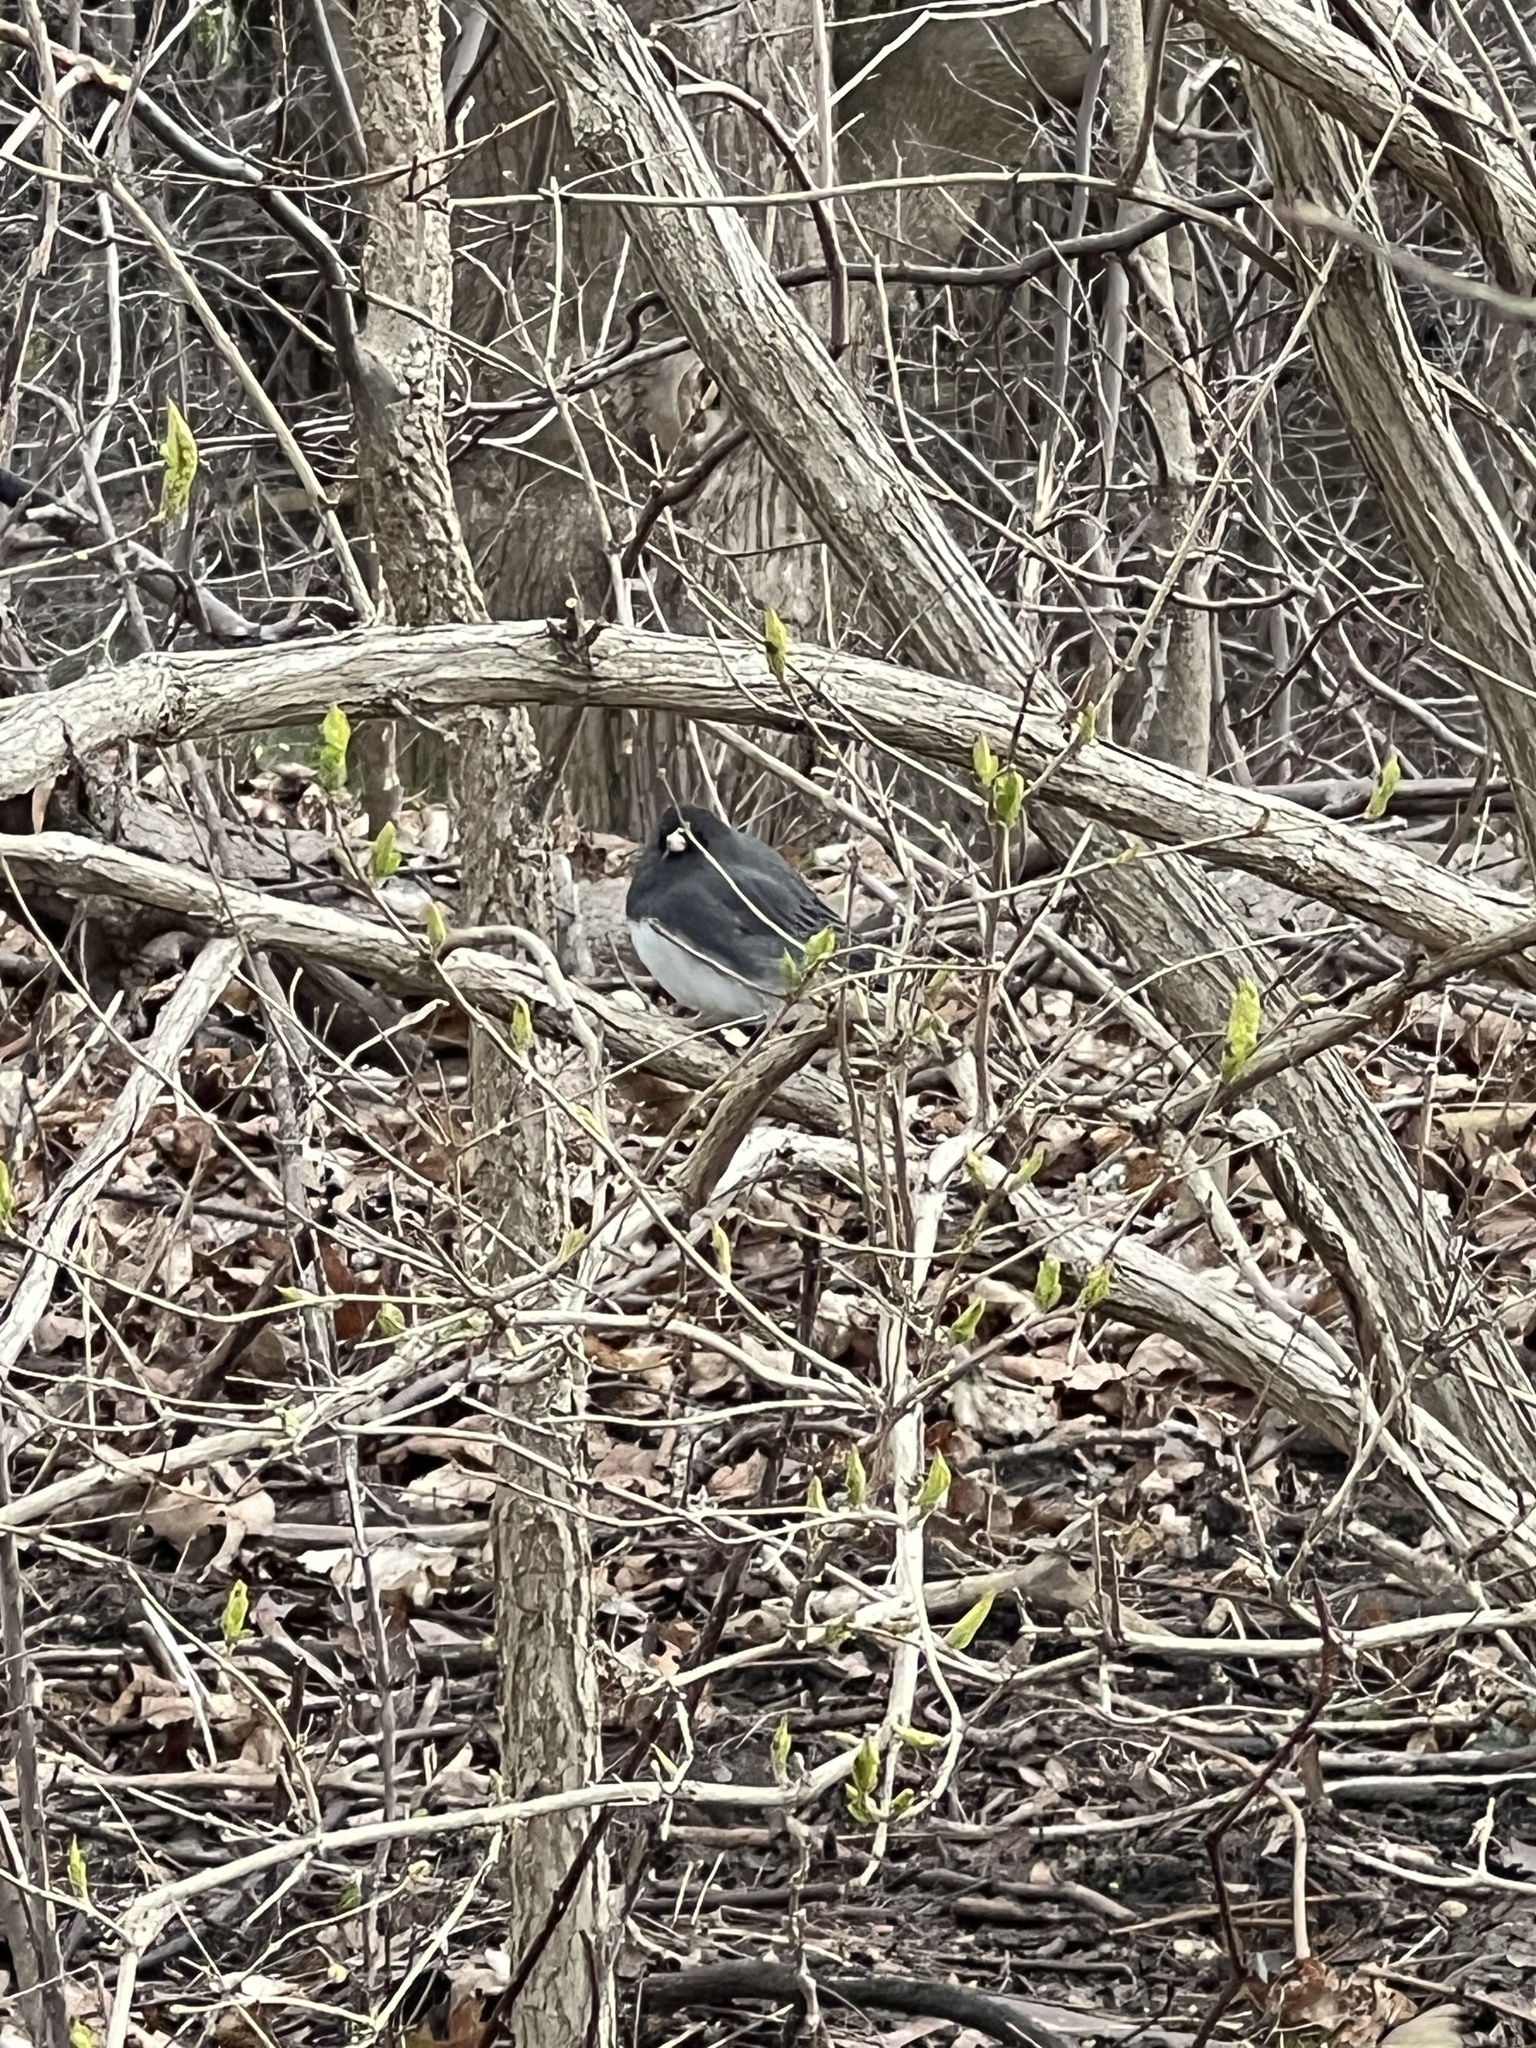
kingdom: Animalia
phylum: Chordata
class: Aves
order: Passeriformes
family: Passerellidae
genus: Junco
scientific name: Junco hyemalis
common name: Dark-eyed junco
